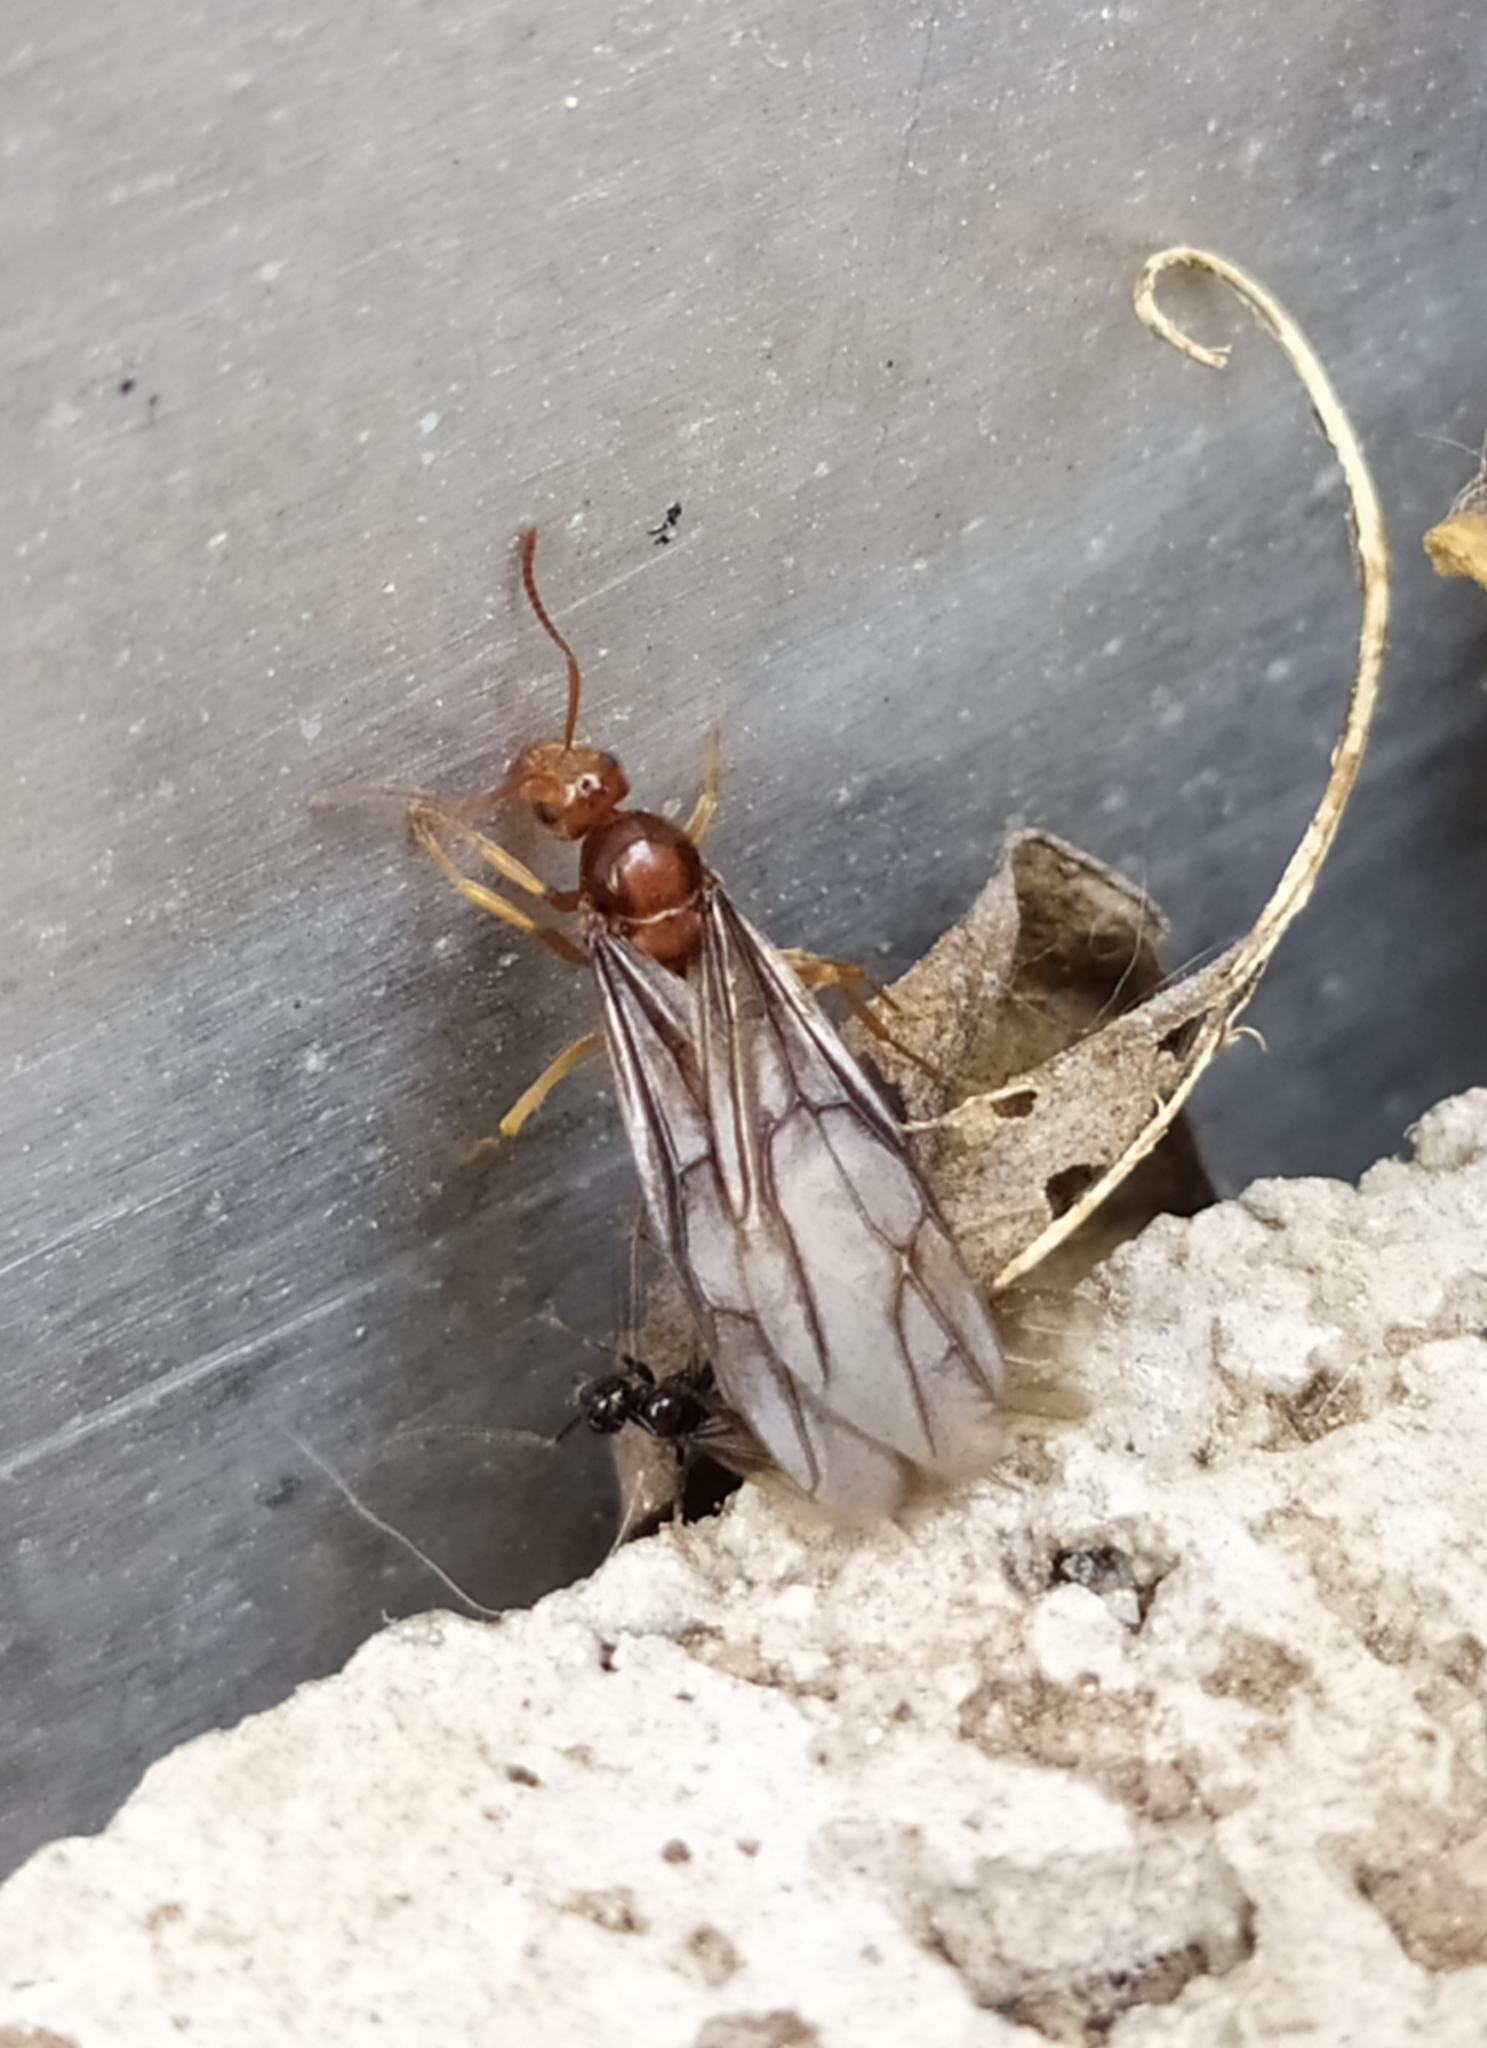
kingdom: Animalia
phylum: Arthropoda
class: Insecta
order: Hymenoptera
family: Formicidae
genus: Prenolepis
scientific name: Prenolepis nitens
